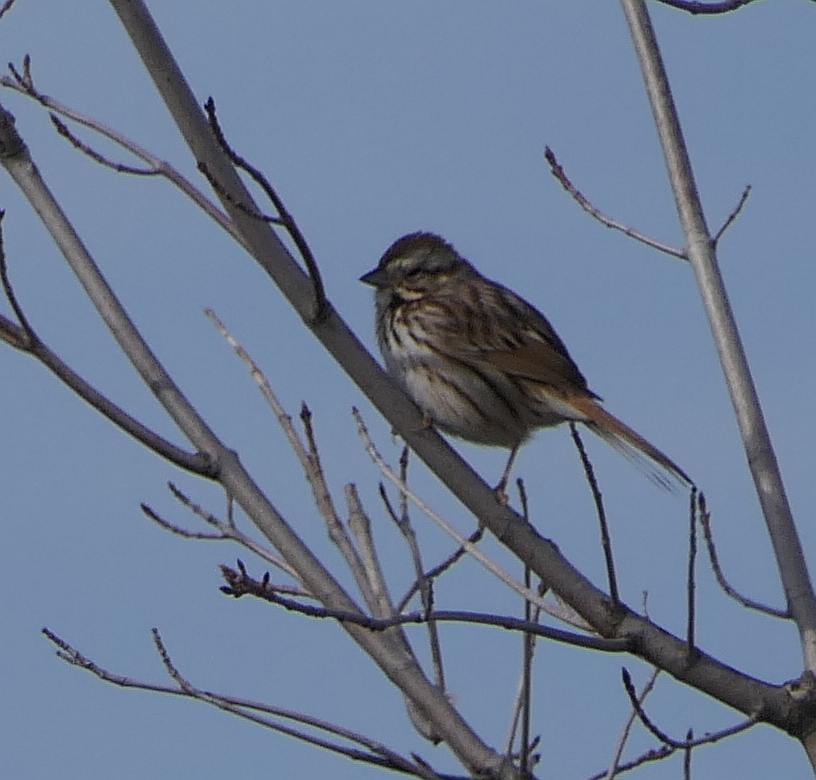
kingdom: Animalia
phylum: Chordata
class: Aves
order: Passeriformes
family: Passerellidae
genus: Melospiza
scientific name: Melospiza melodia
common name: Song sparrow
